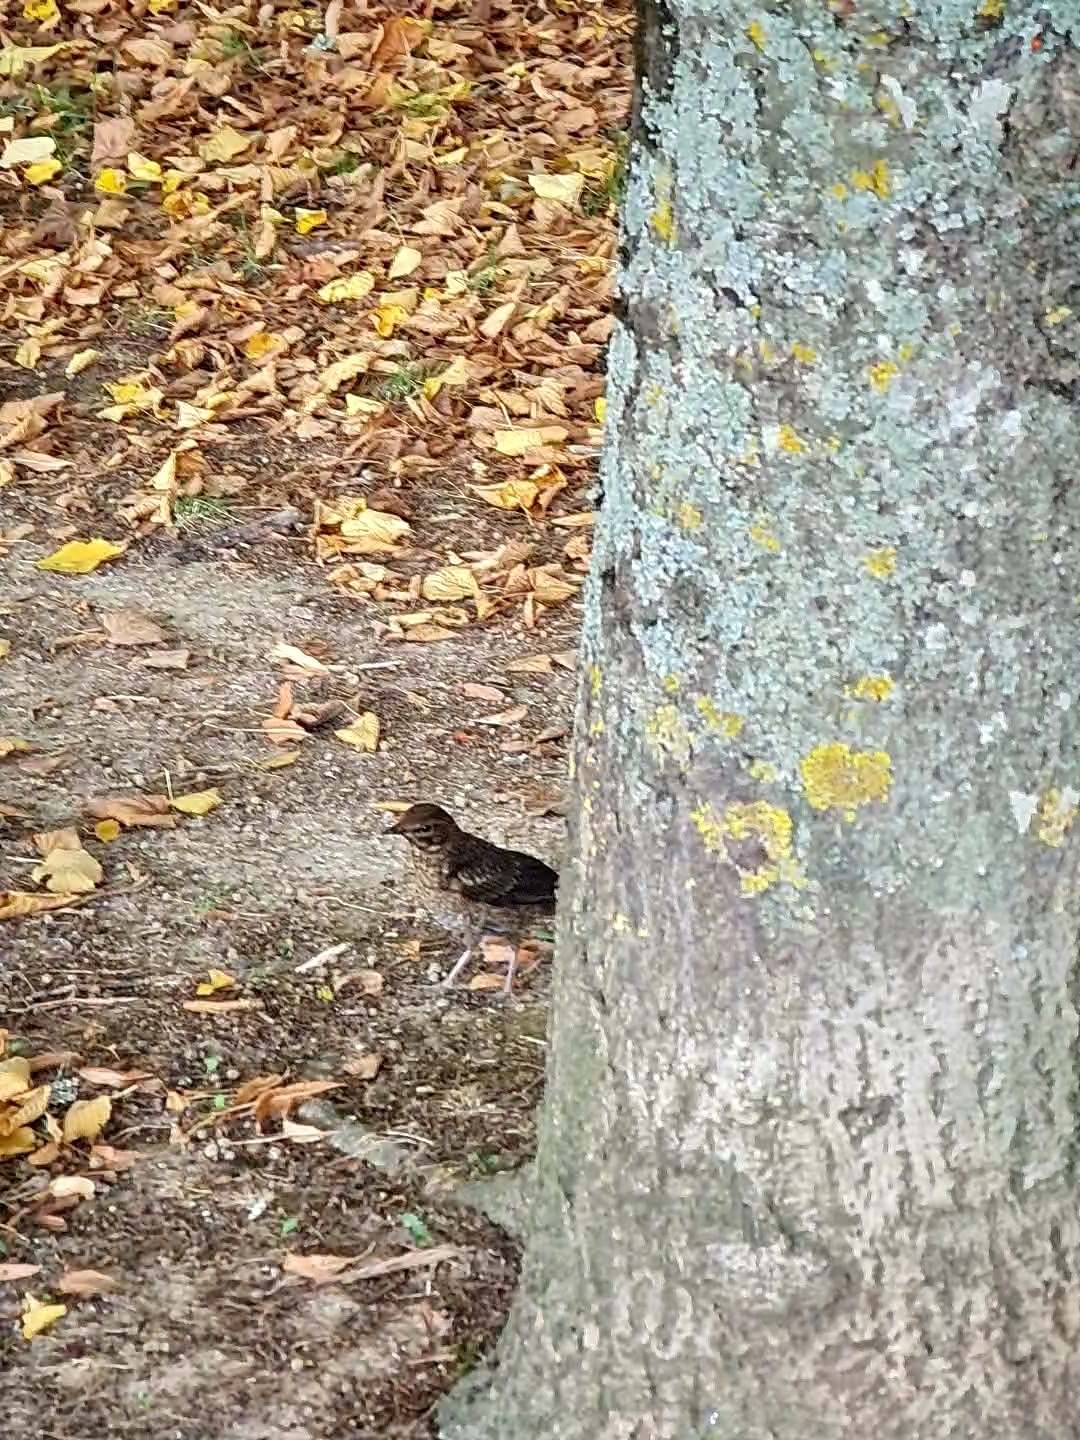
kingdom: Animalia
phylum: Chordata
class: Aves
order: Passeriformes
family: Turdidae
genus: Turdus
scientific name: Turdus merula
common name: Common blackbird
